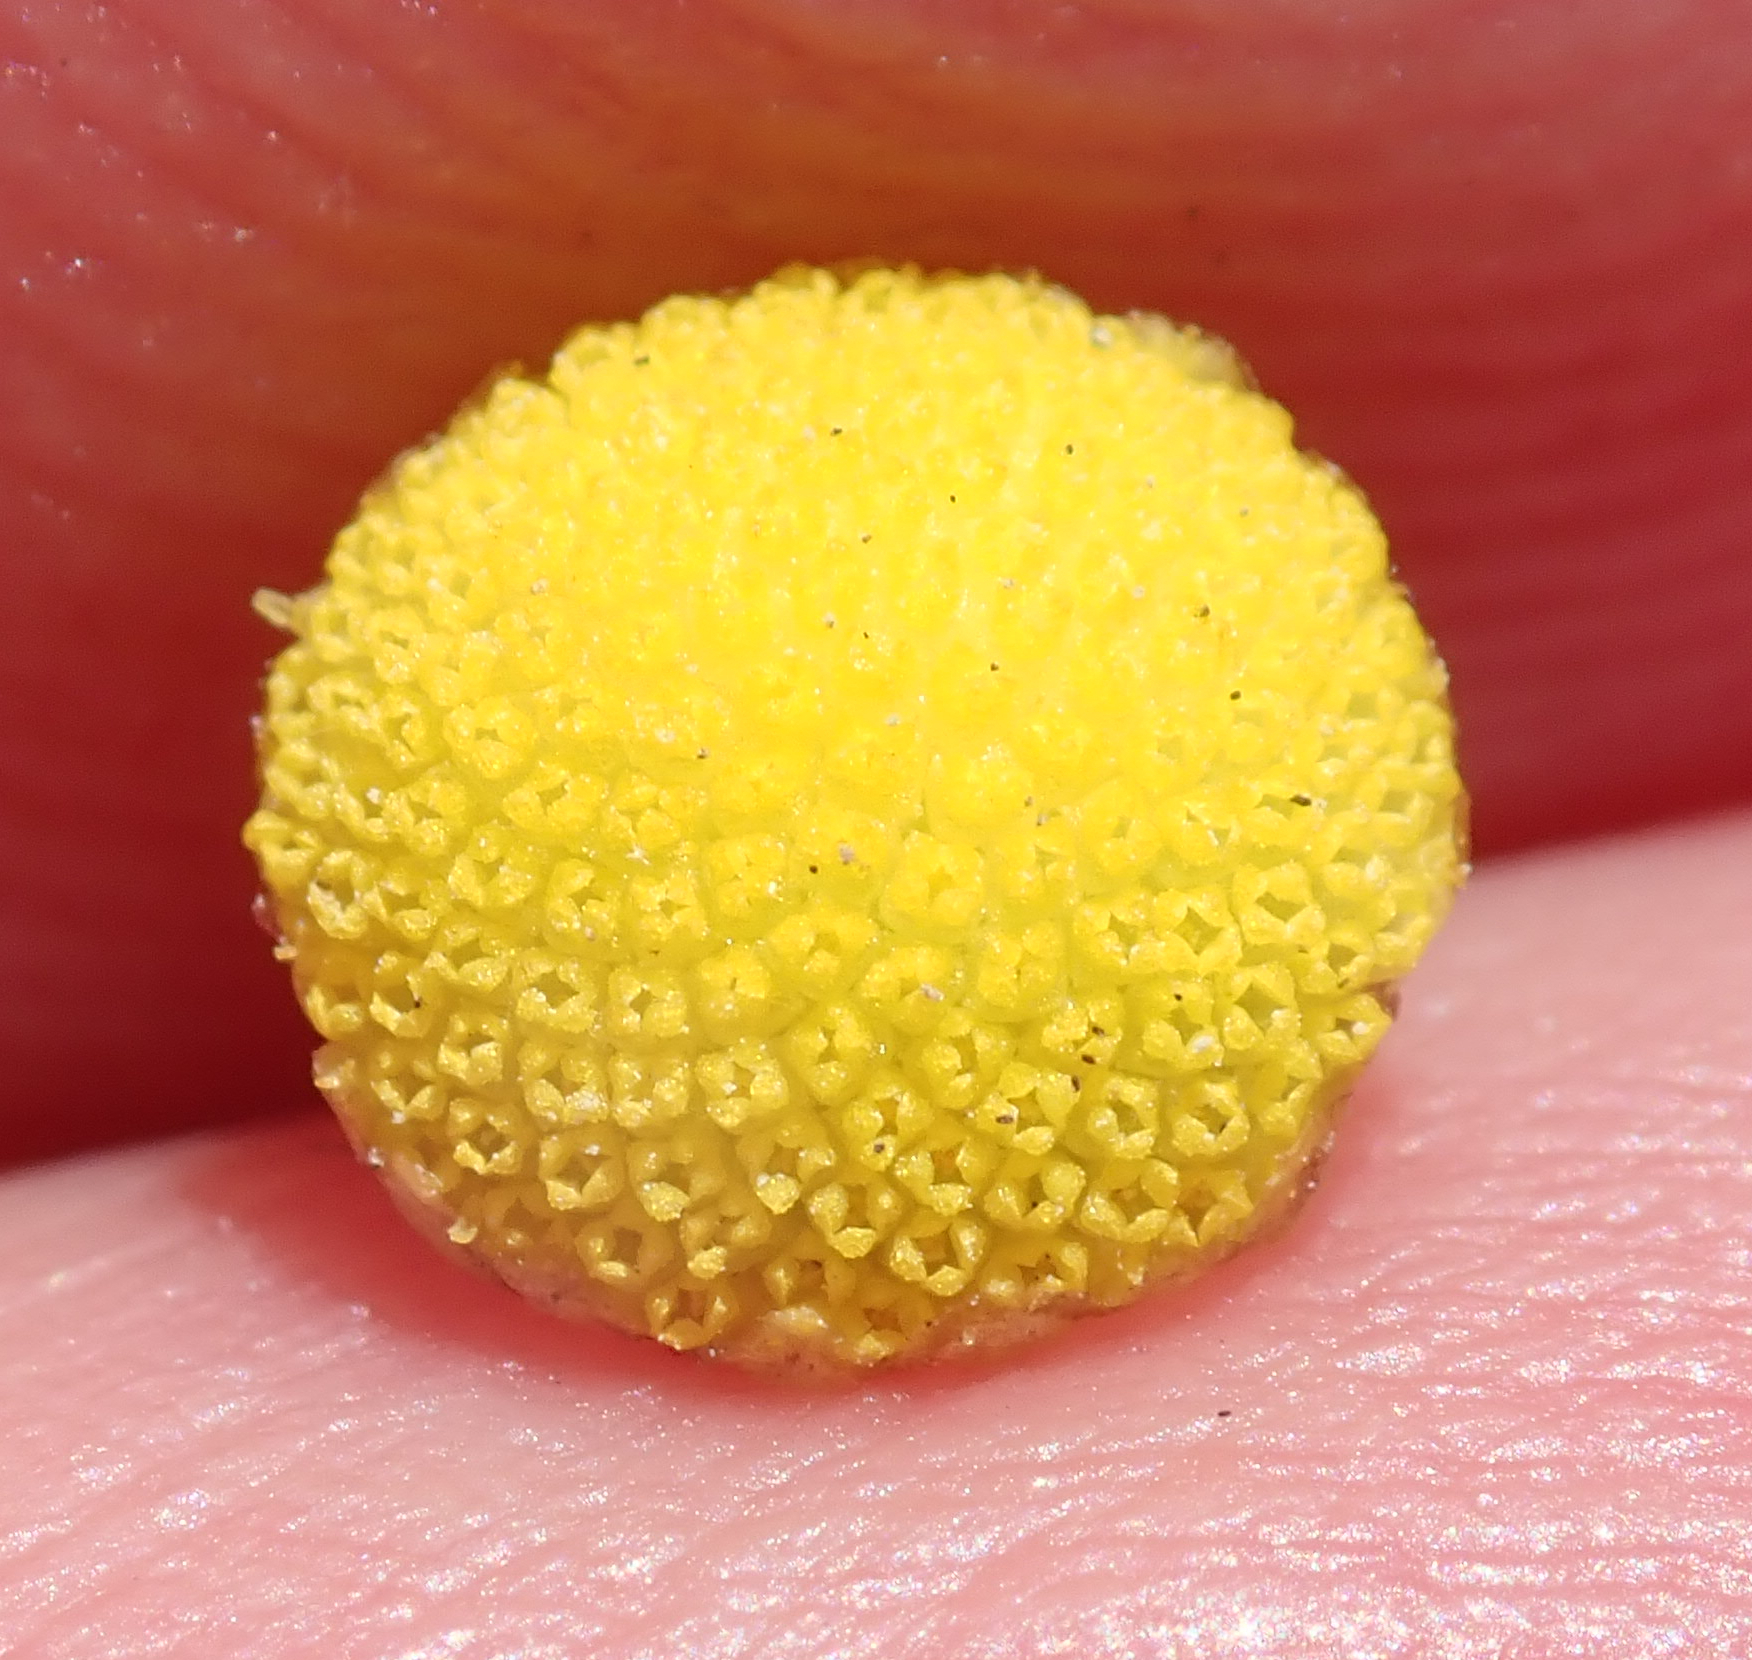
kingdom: Plantae
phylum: Tracheophyta
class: Magnoliopsida
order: Asterales
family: Asteraceae
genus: Cotula
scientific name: Cotula coronopifolia
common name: Buttonweed
